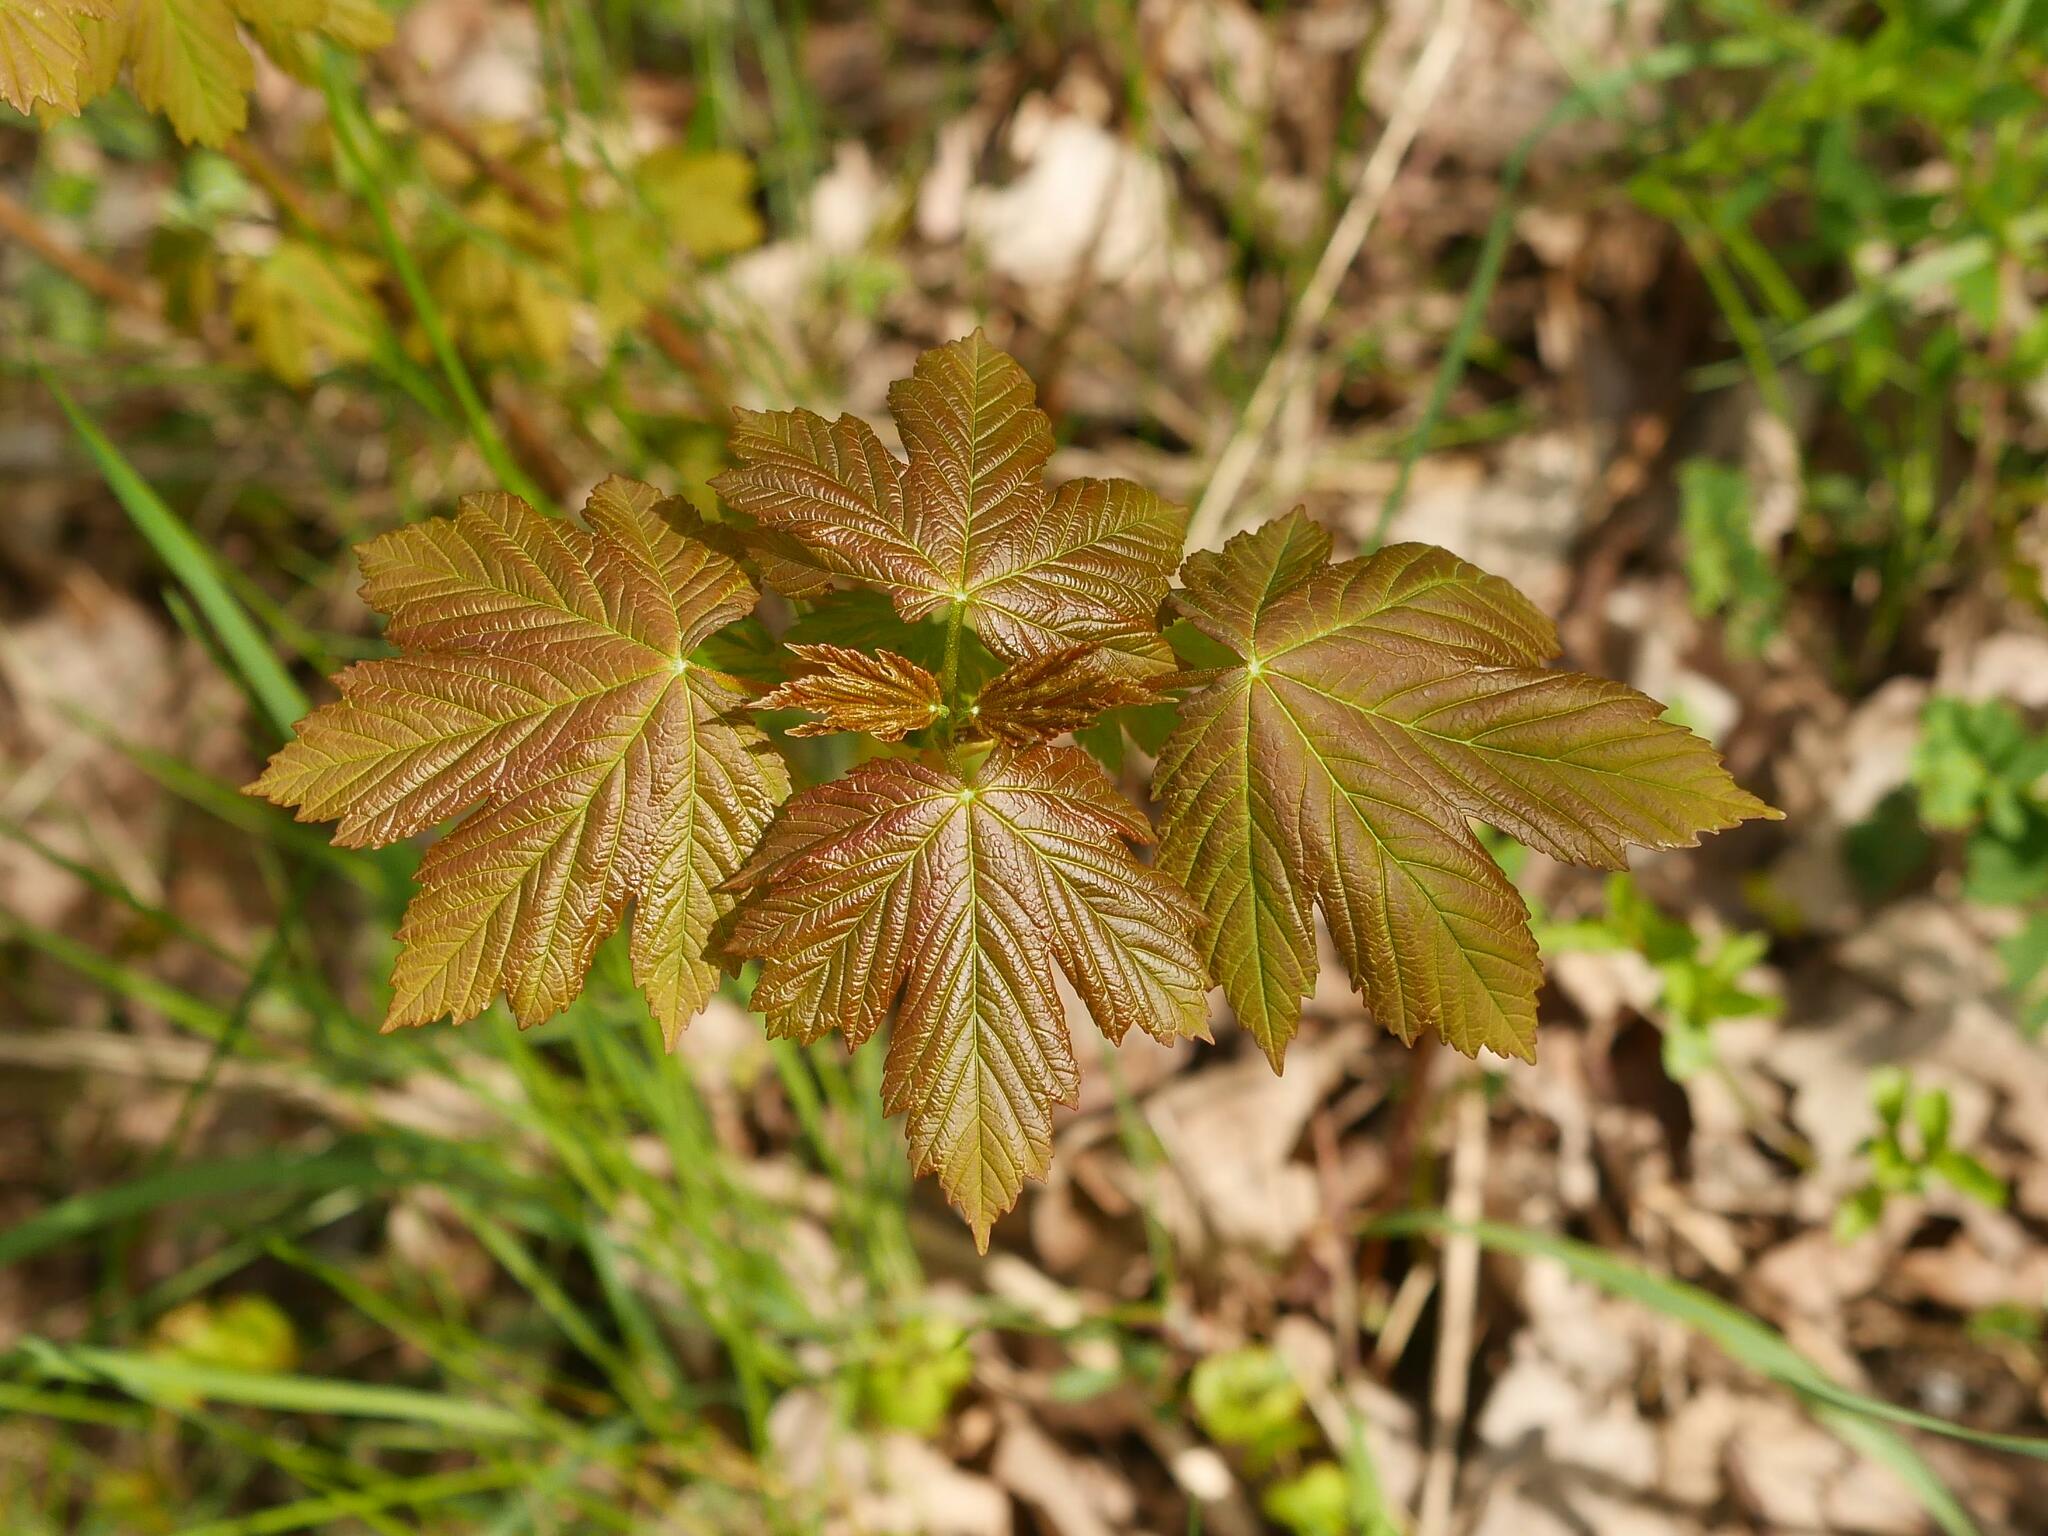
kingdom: Plantae
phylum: Tracheophyta
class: Magnoliopsida
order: Sapindales
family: Sapindaceae
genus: Acer
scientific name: Acer pseudoplatanus
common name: Sycamore
